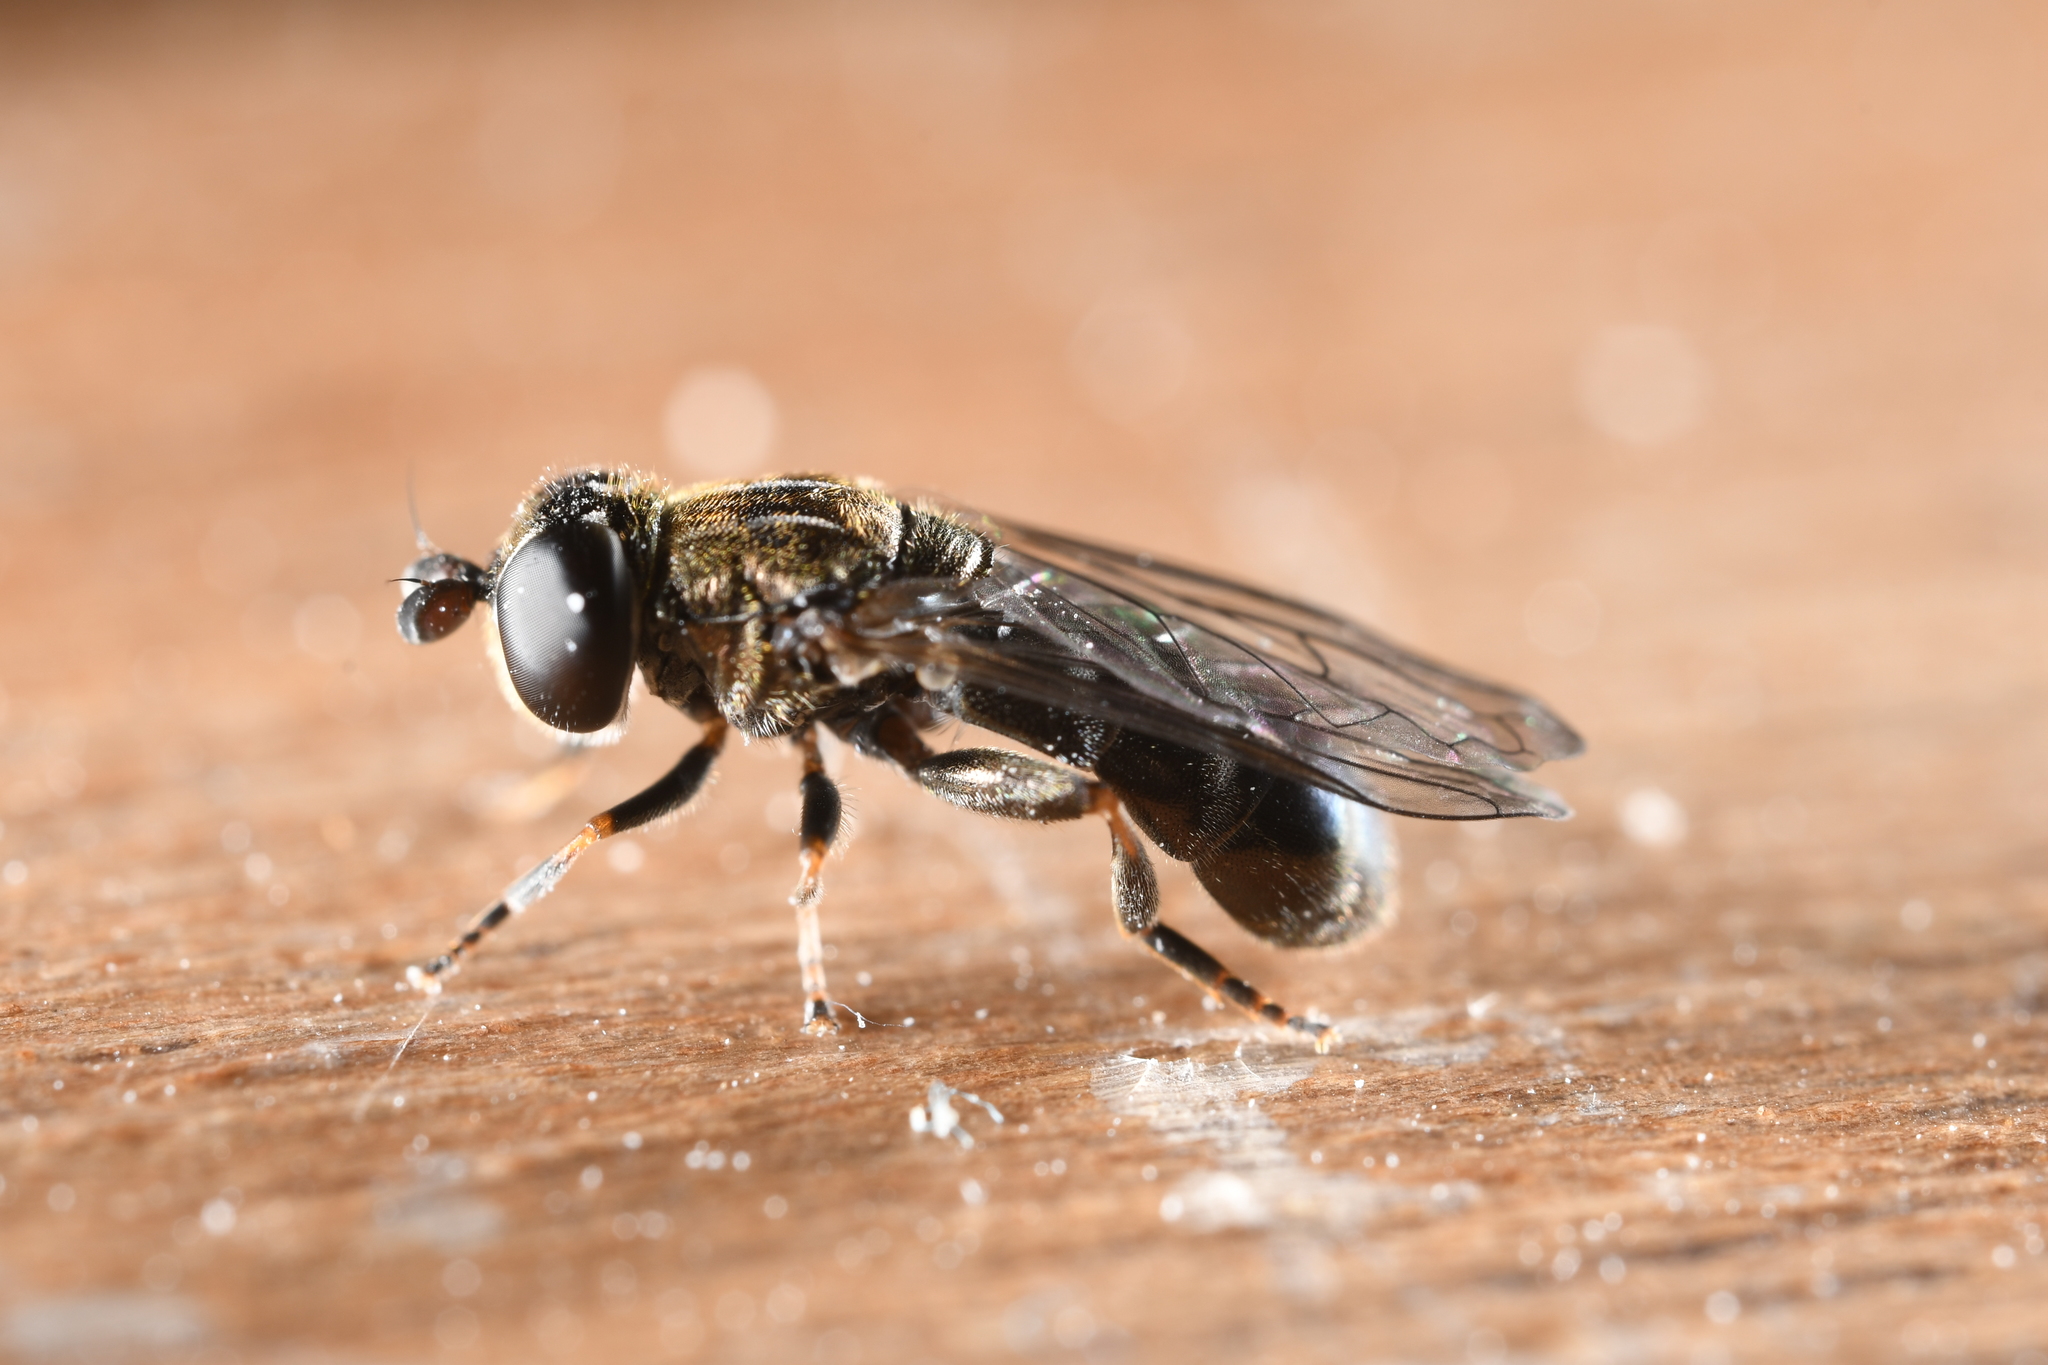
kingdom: Animalia
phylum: Arthropoda
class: Insecta
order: Diptera
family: Syrphidae
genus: Eumerus
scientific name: Eumerus
